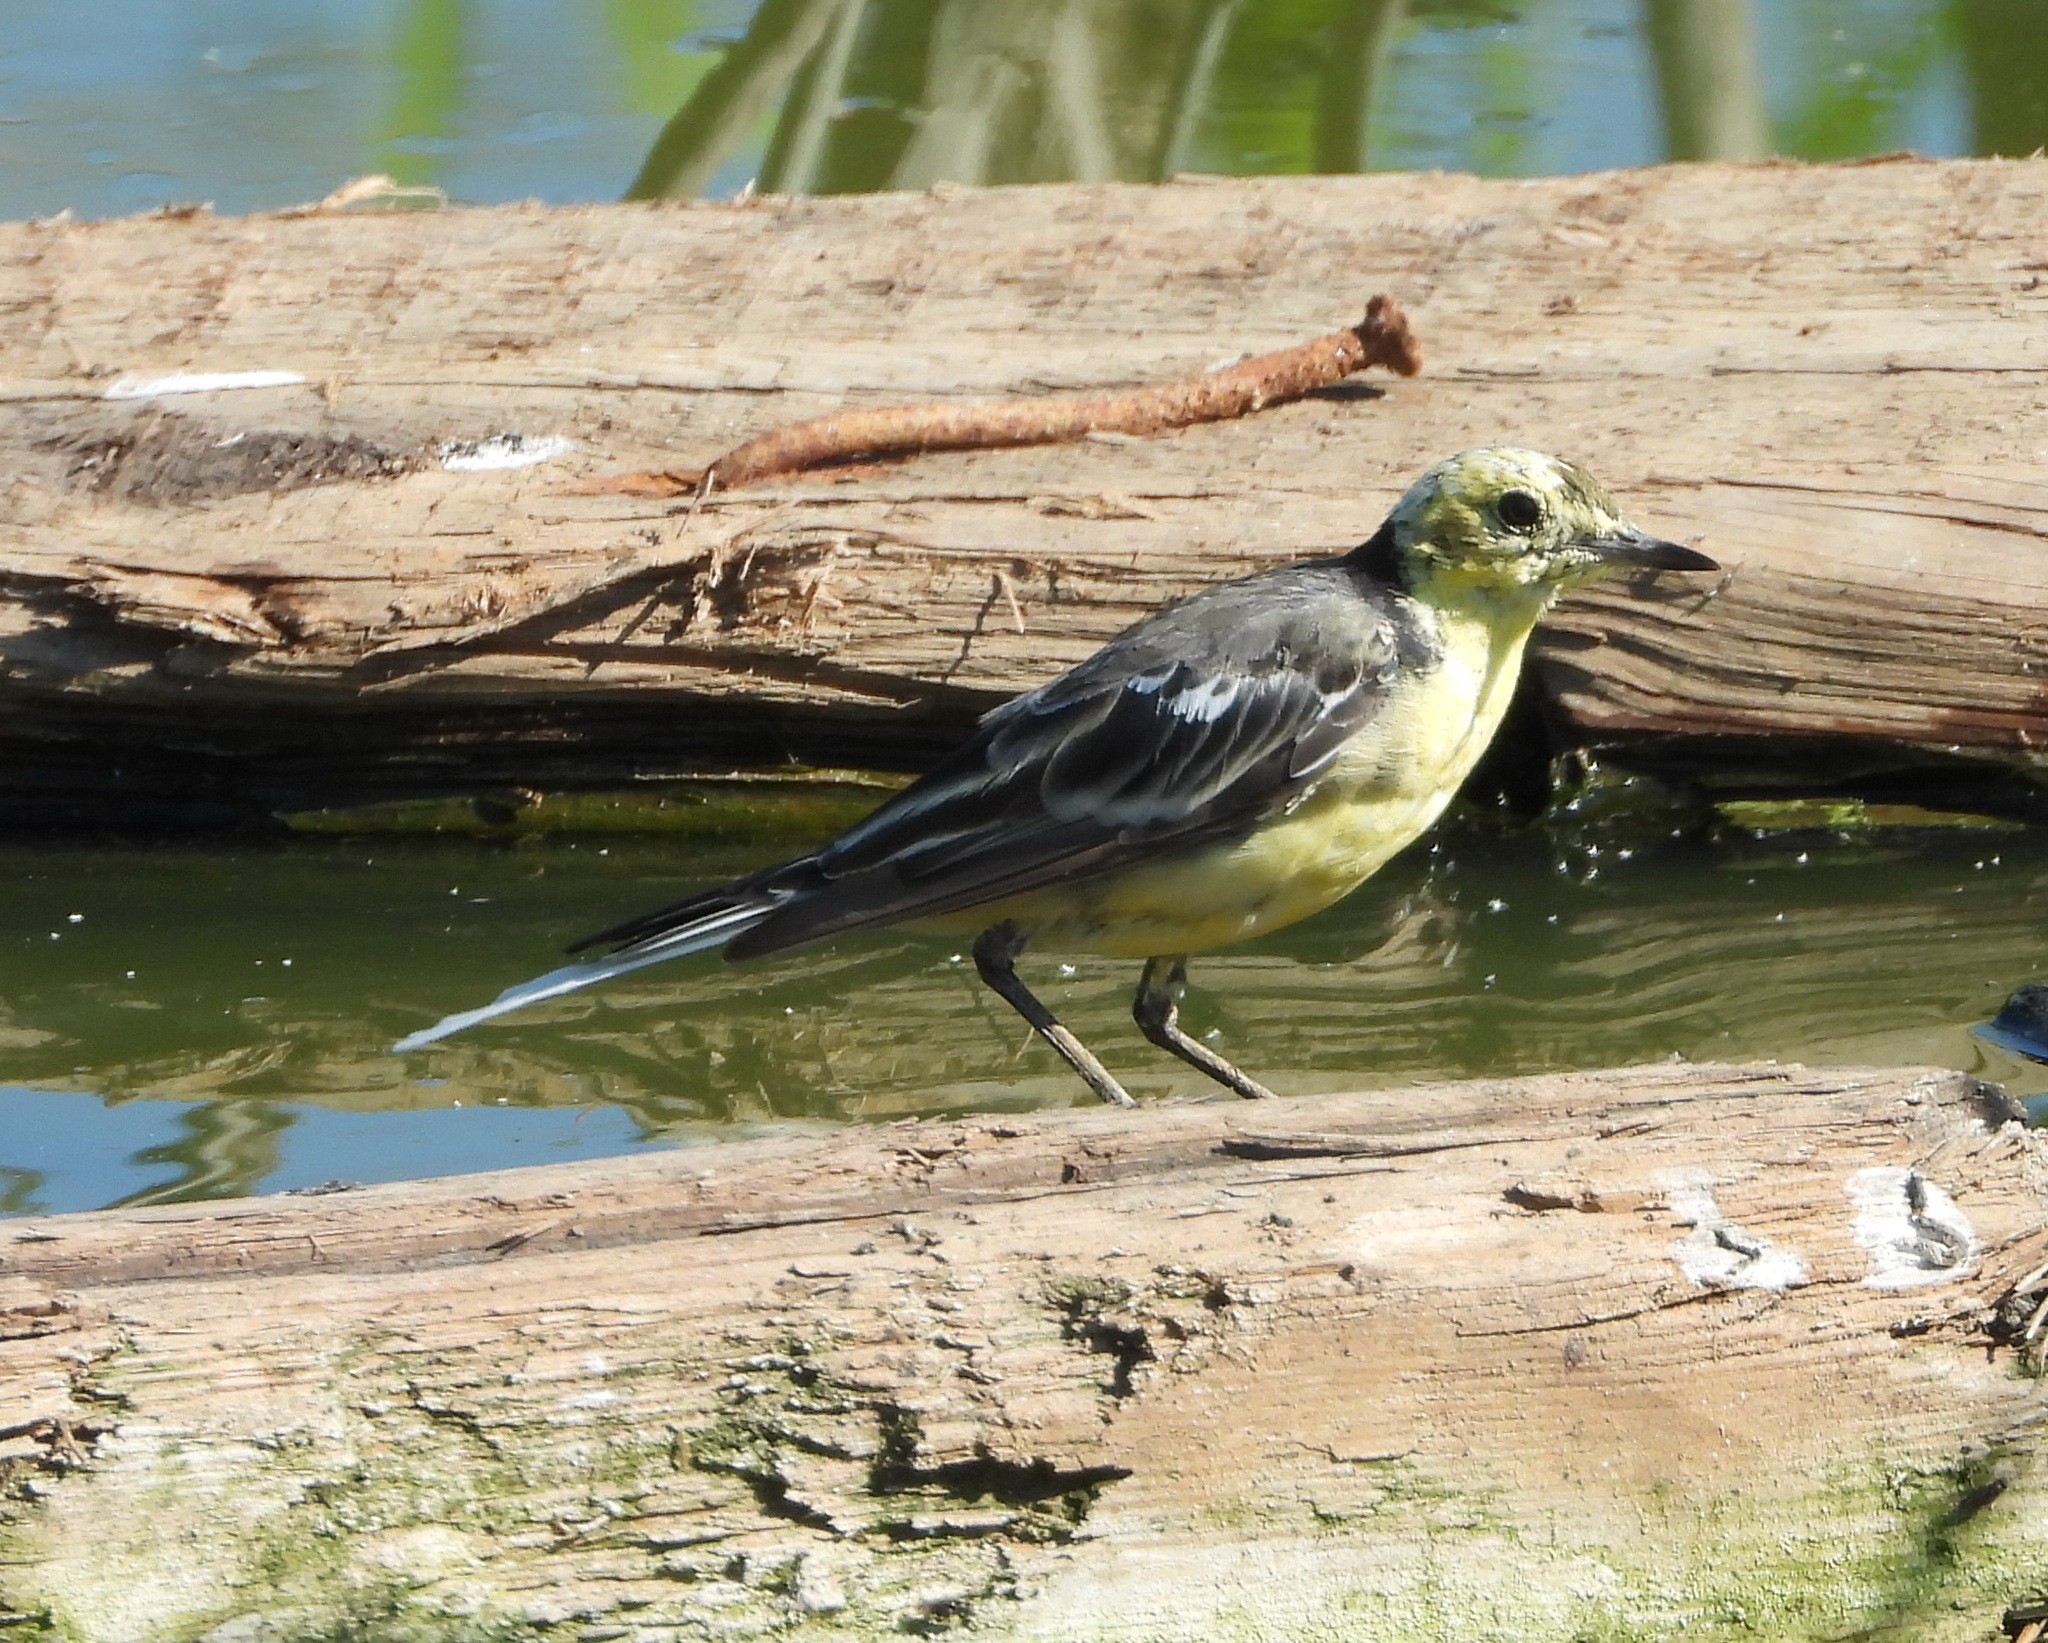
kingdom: Animalia
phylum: Chordata
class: Aves
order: Passeriformes
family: Motacillidae
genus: Motacilla
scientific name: Motacilla citreola
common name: Citrine wagtail
